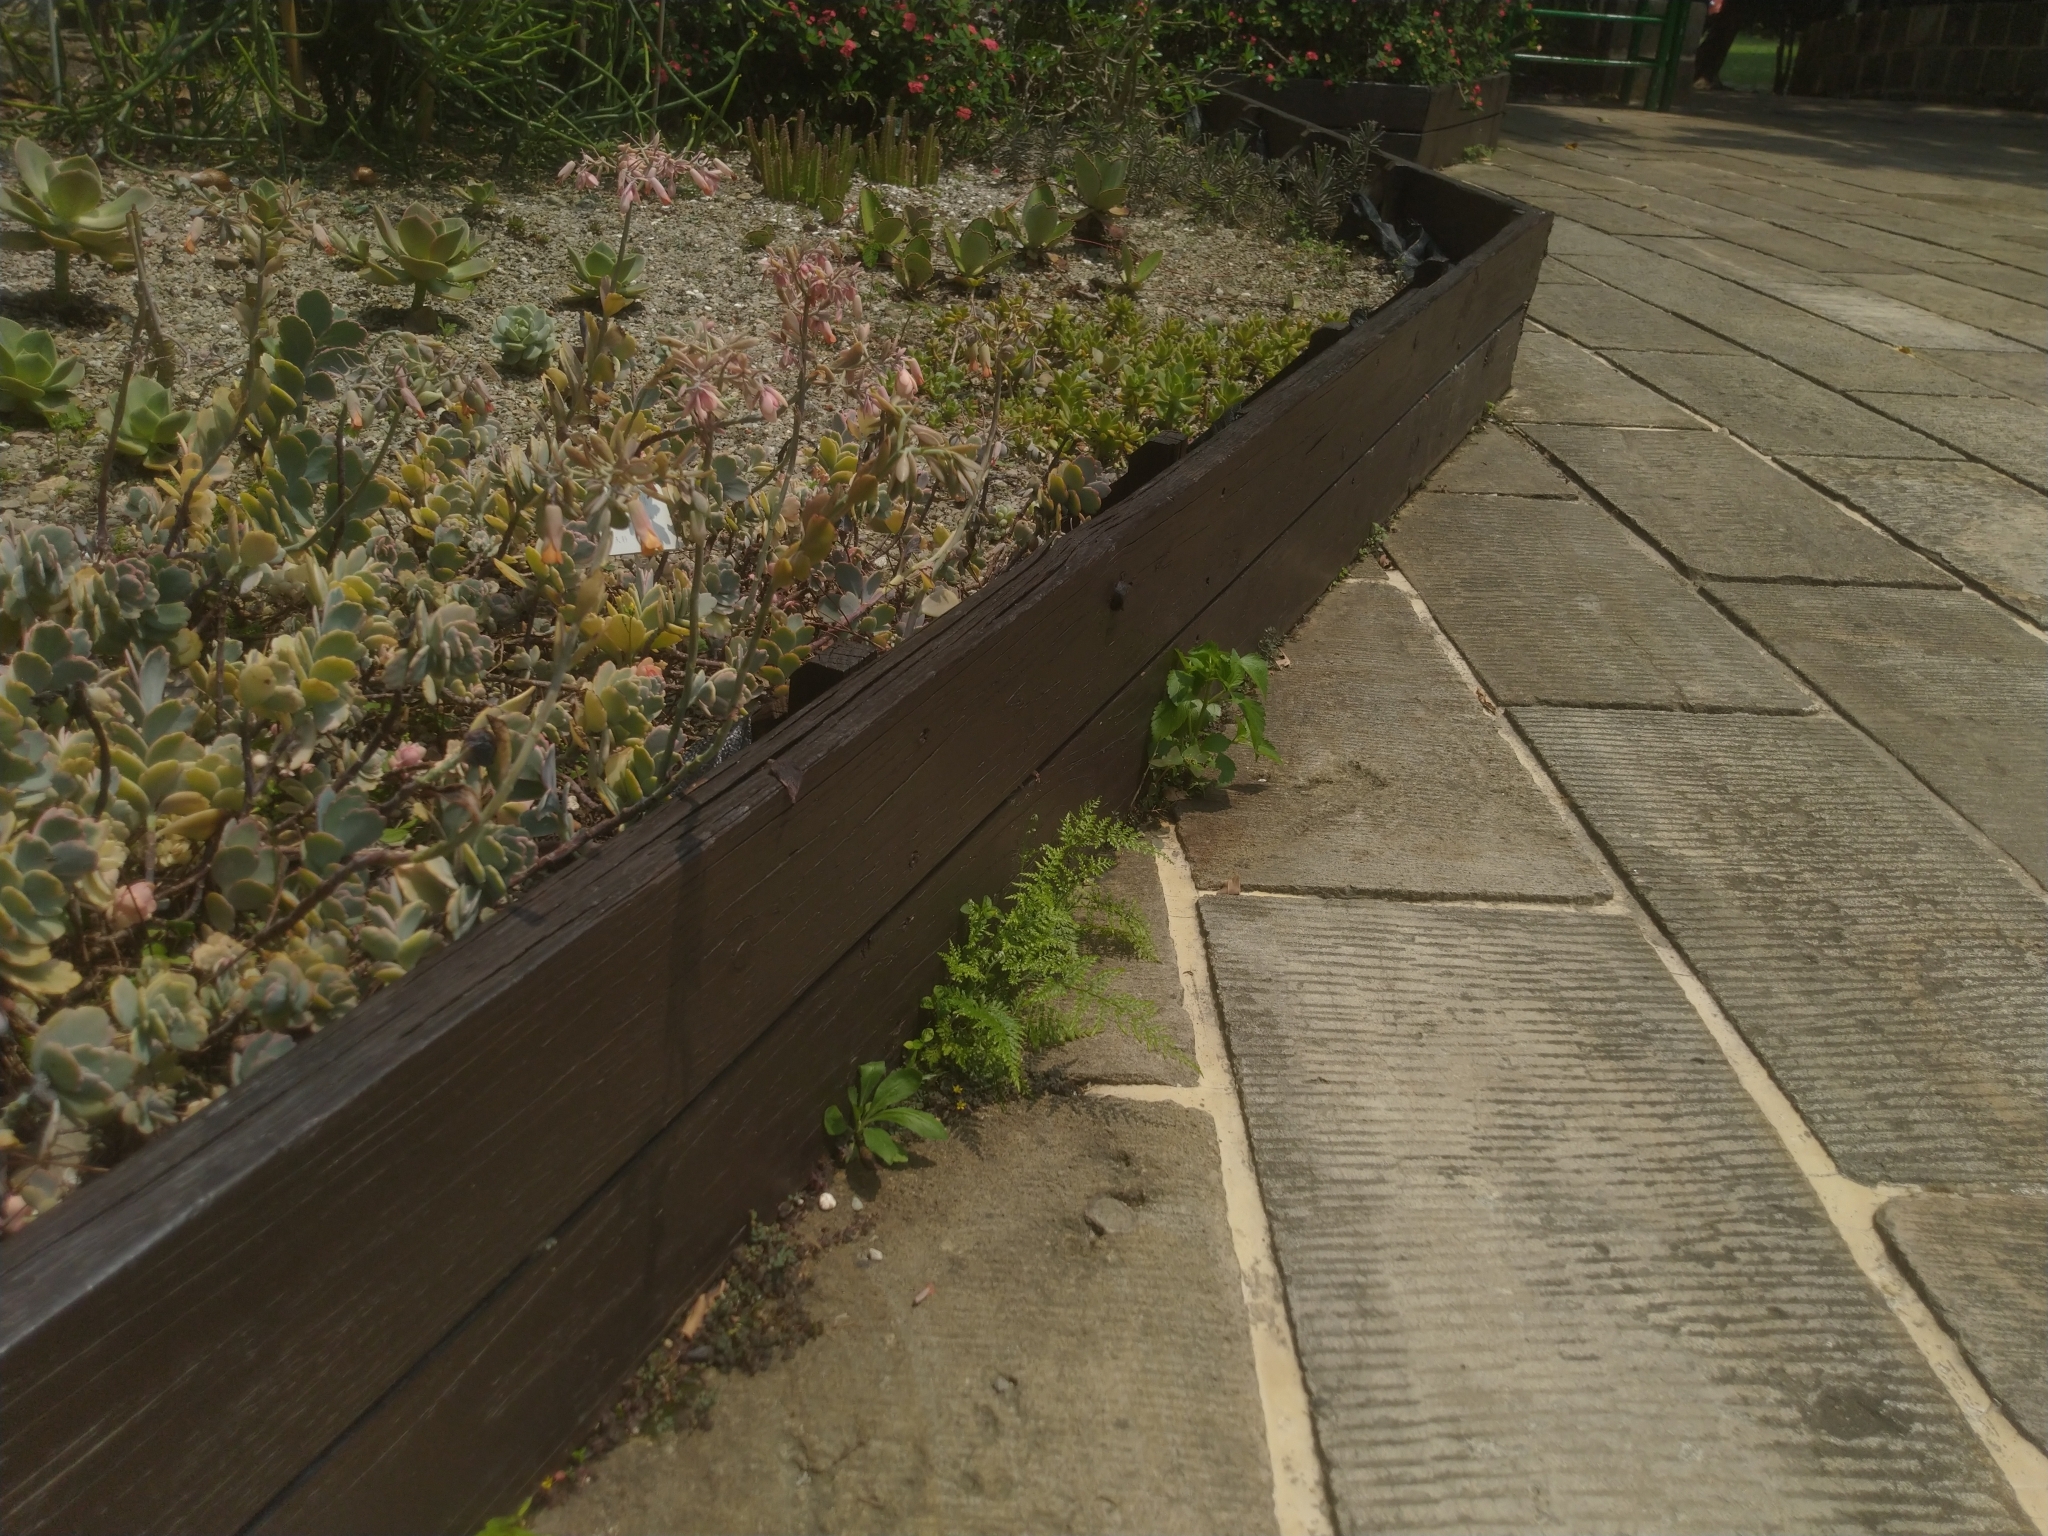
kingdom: Plantae
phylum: Tracheophyta
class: Polypodiopsida
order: Polypodiales
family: Pteridaceae
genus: Pityrogramma
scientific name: Pityrogramma calomelanos
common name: Dixie silverback fern
